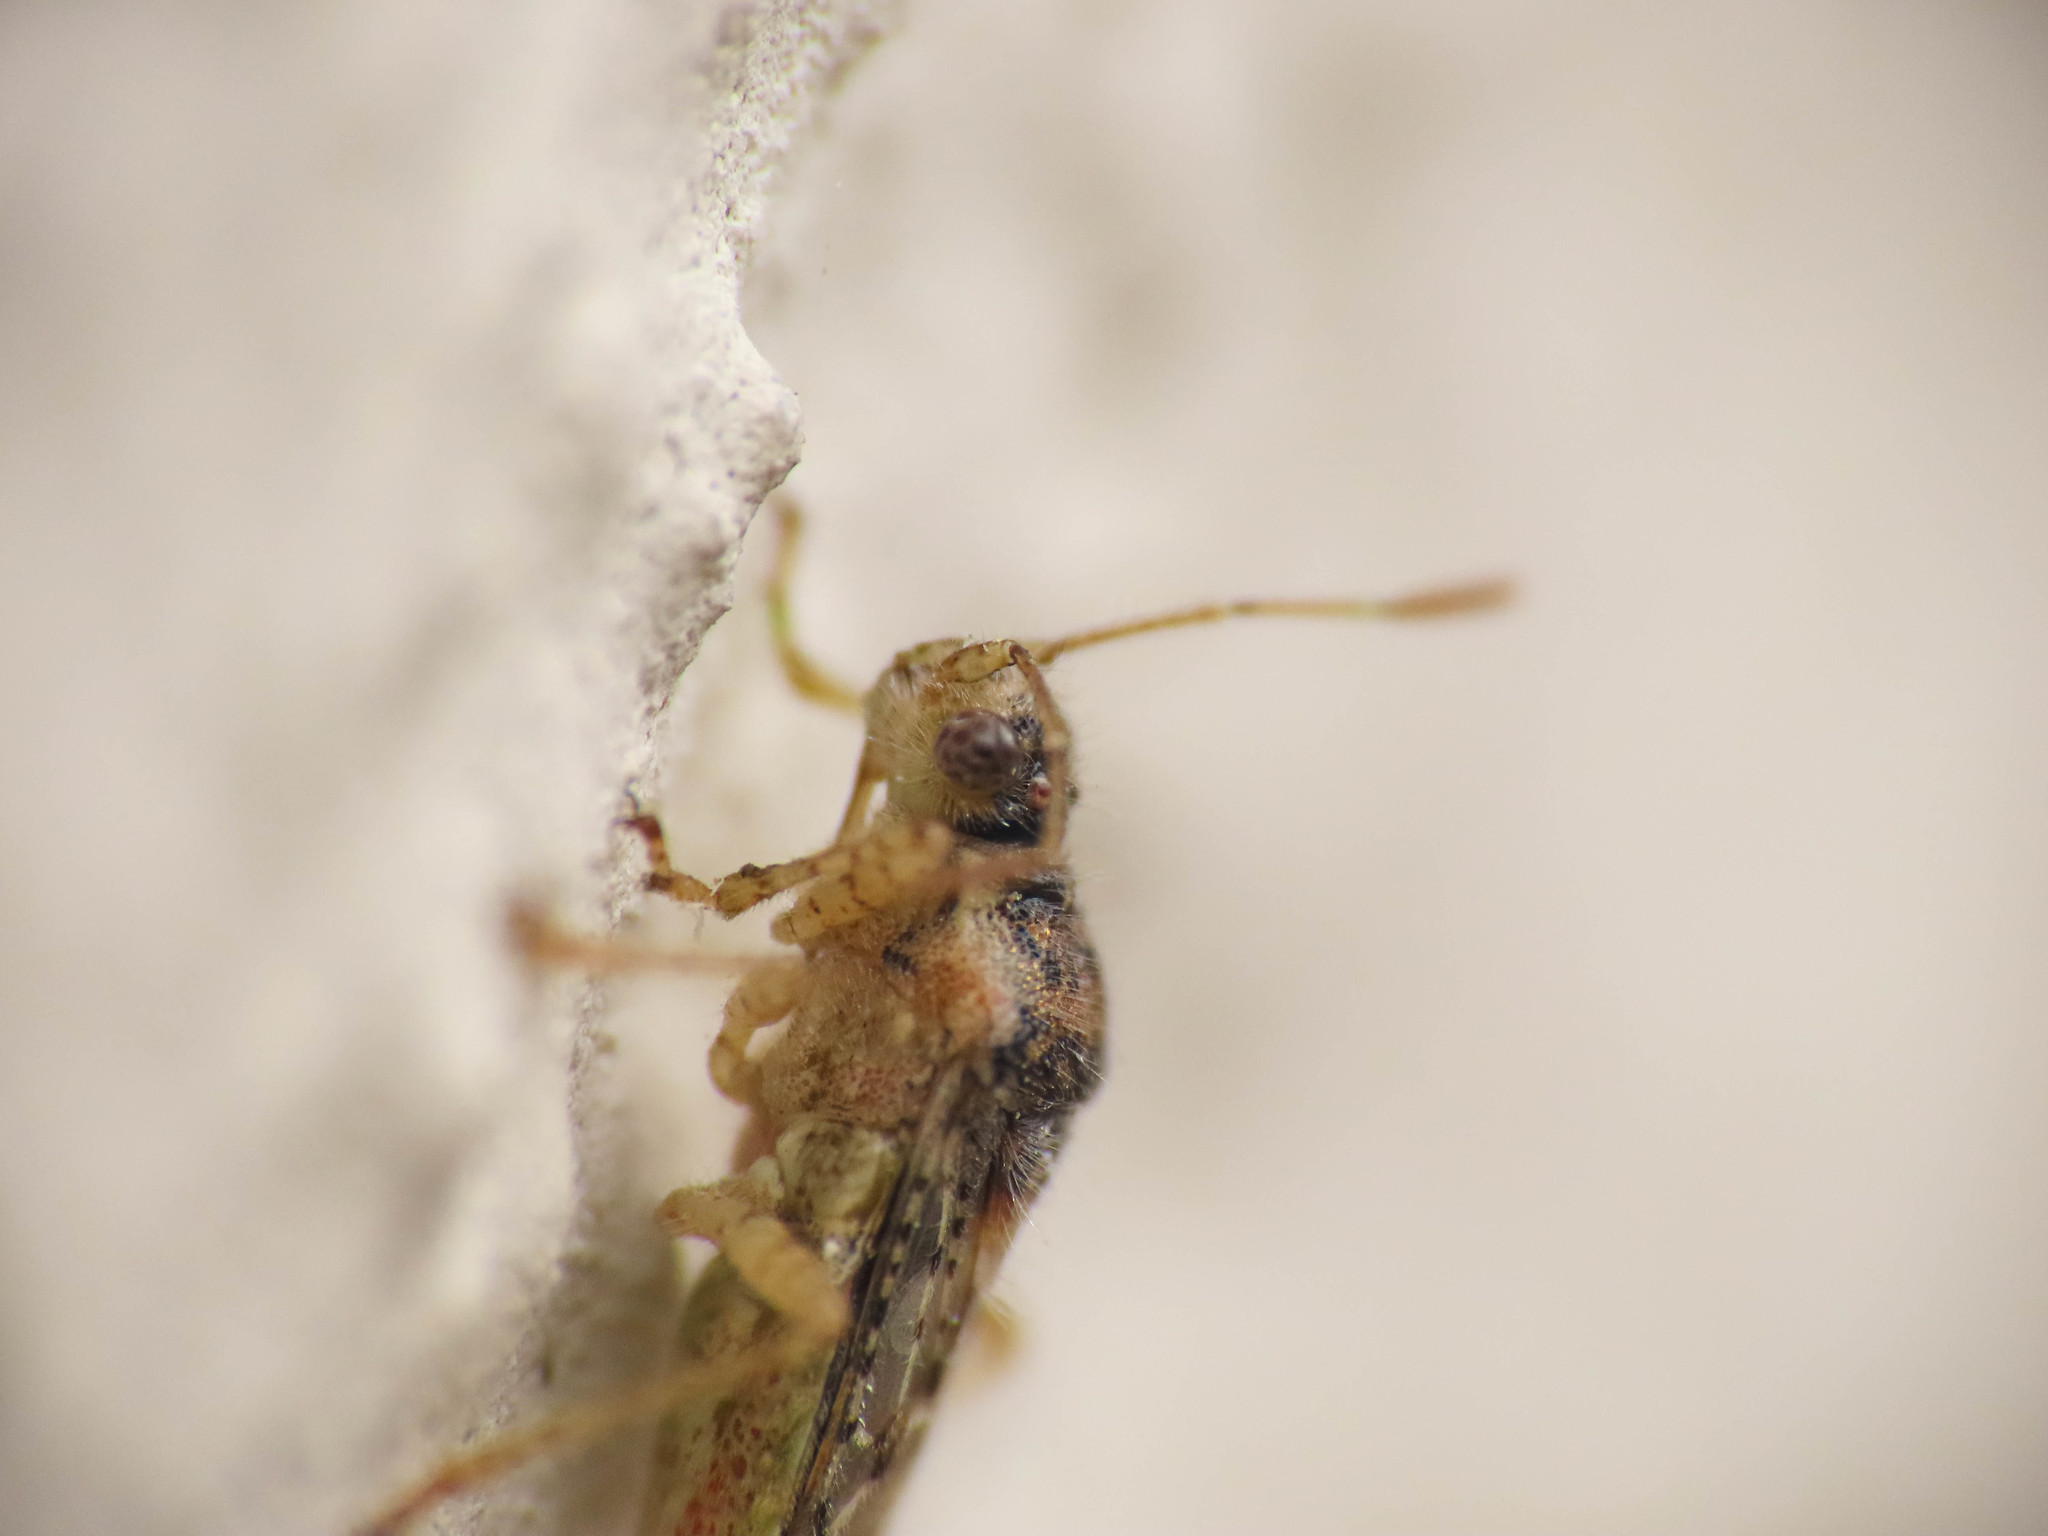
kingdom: Animalia
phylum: Arthropoda
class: Insecta
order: Hemiptera
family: Rhopalidae
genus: Brachycarenus
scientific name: Brachycarenus tigrinus
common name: Scentless plant bug
